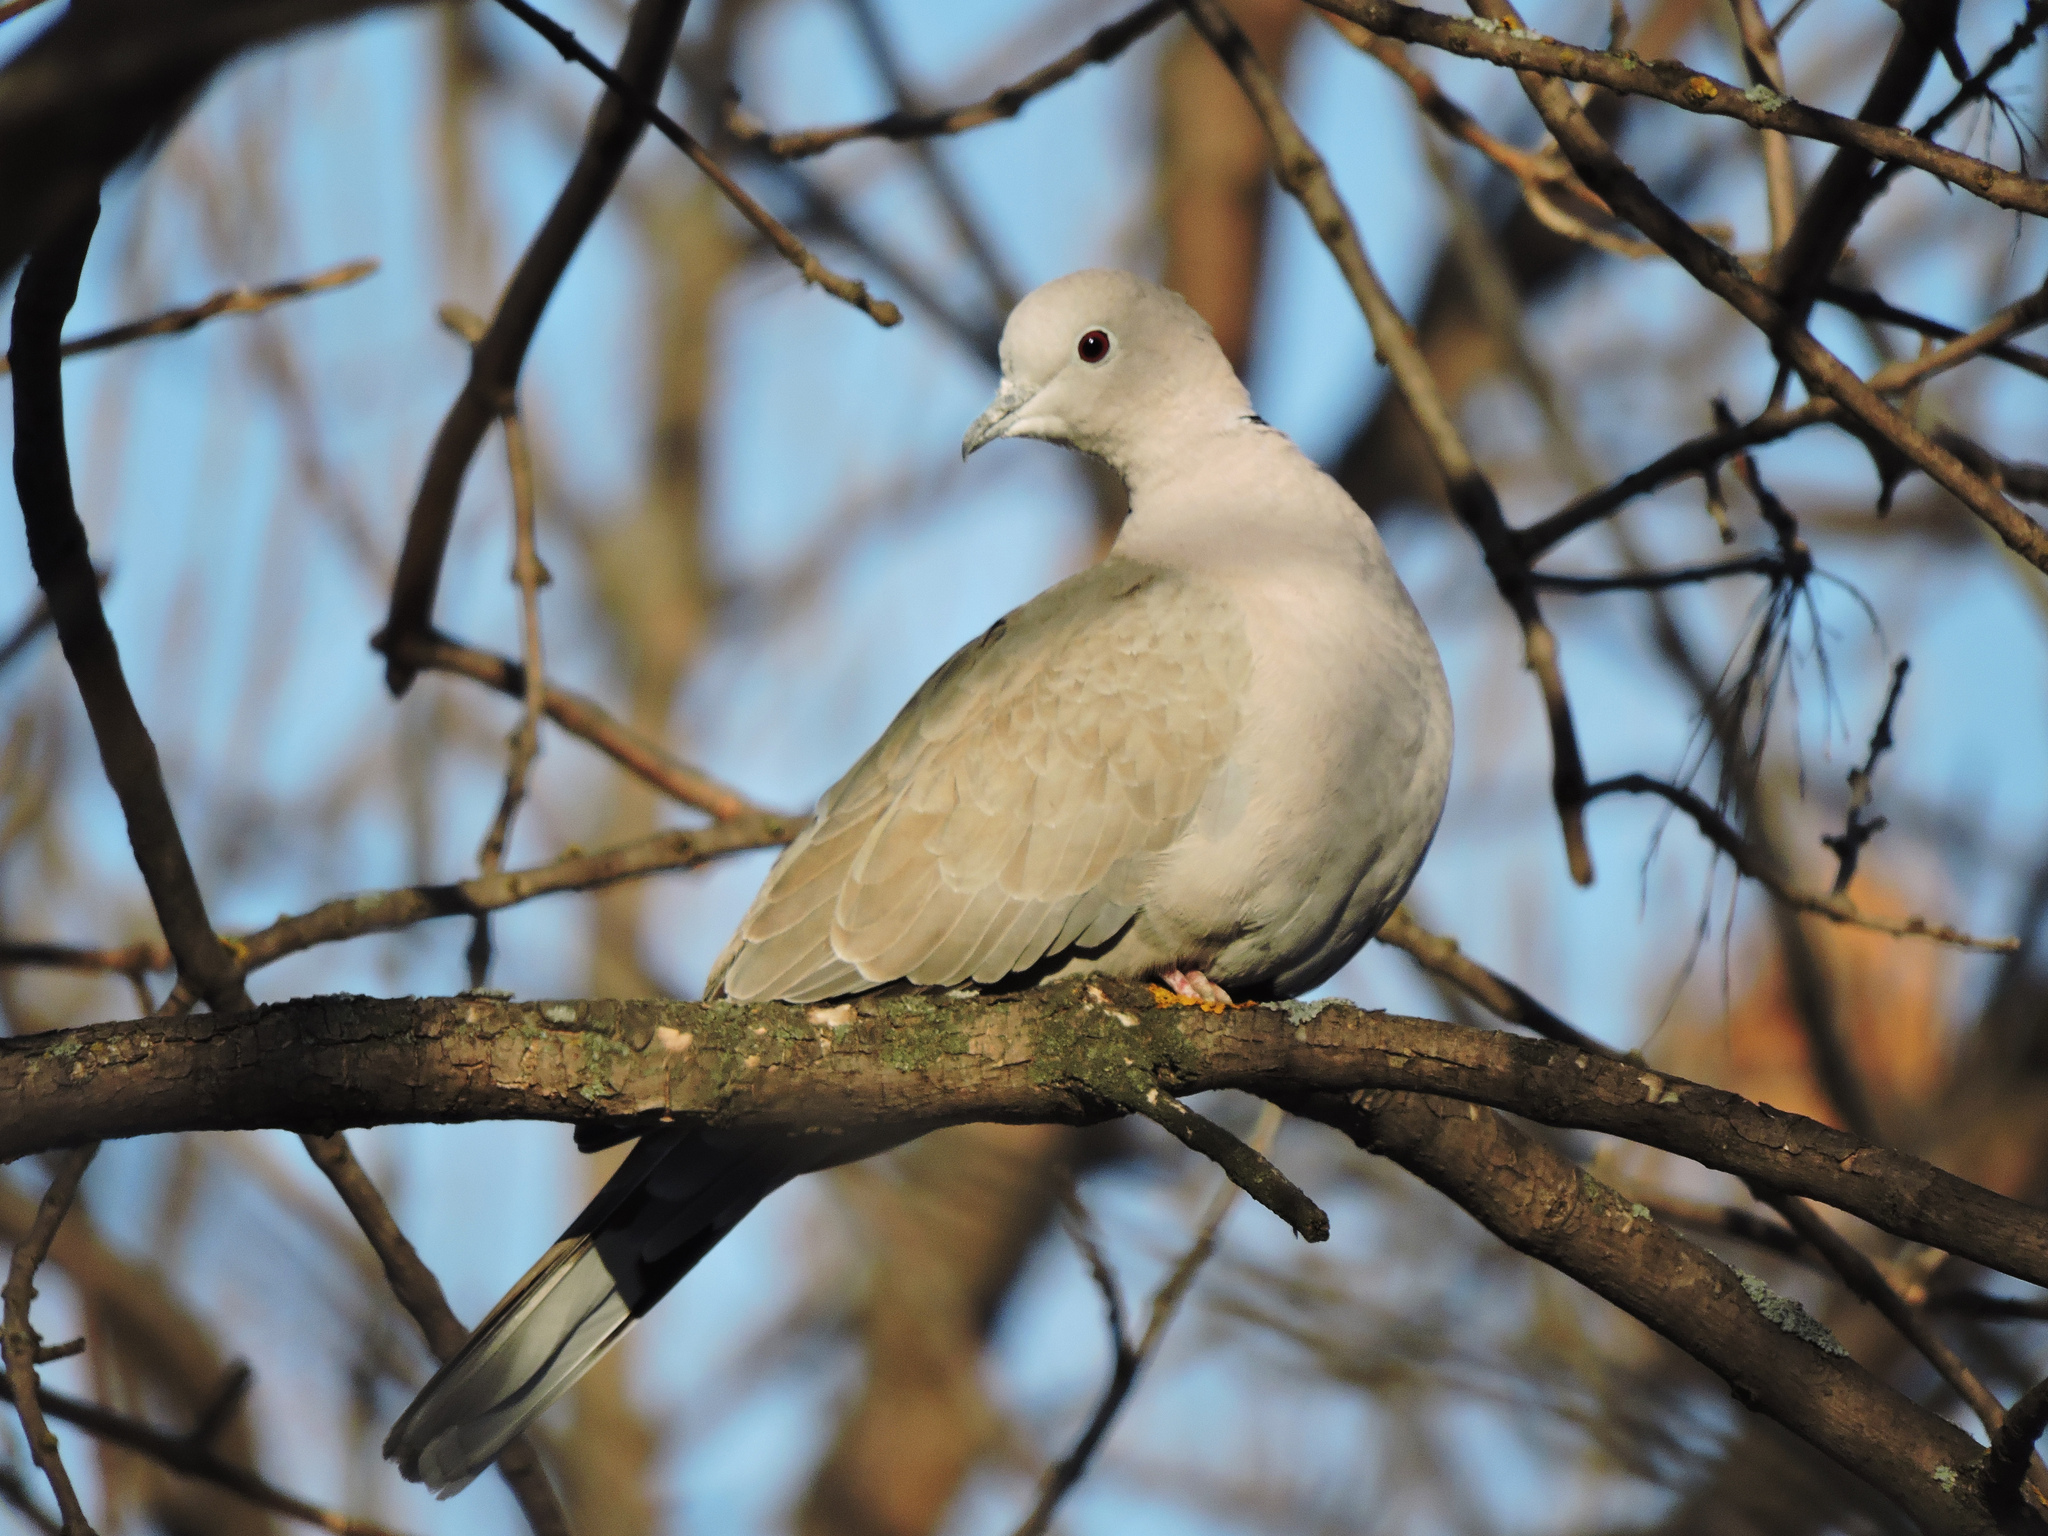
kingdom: Animalia
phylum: Chordata
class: Aves
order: Columbiformes
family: Columbidae
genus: Streptopelia
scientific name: Streptopelia decaocto
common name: Eurasian collared dove
